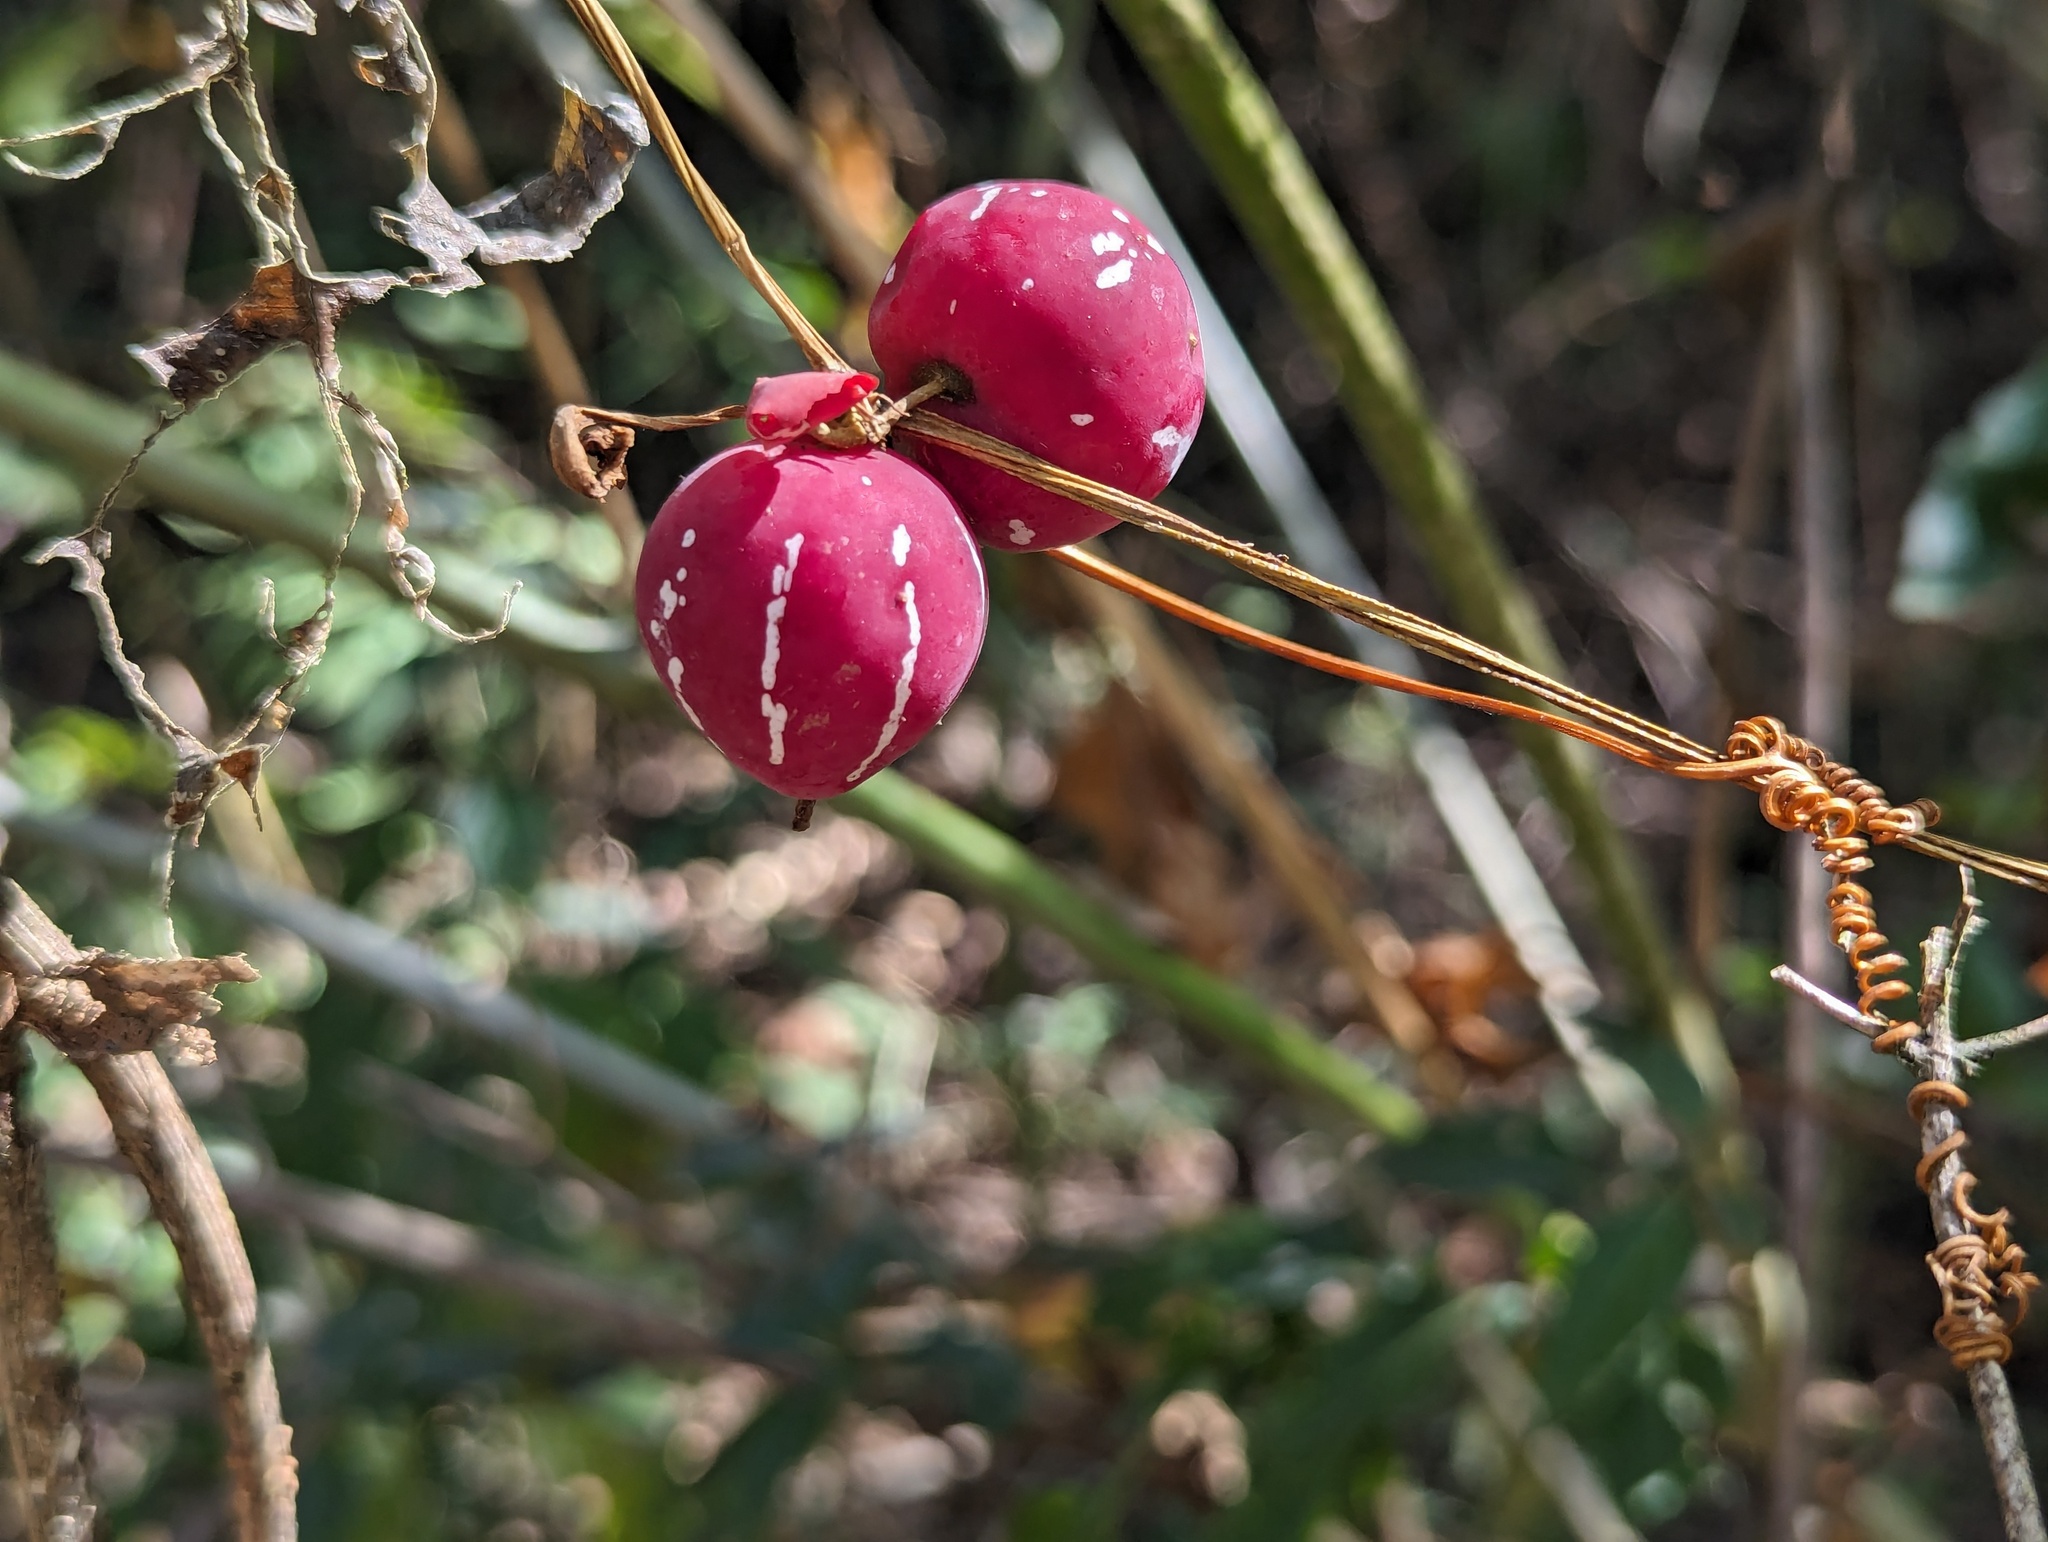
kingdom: Plantae
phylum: Tracheophyta
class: Magnoliopsida
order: Cucurbitales
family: Cucurbitaceae
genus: Diplocyclos
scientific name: Diplocyclos palmatus
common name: Striped-cucumber
